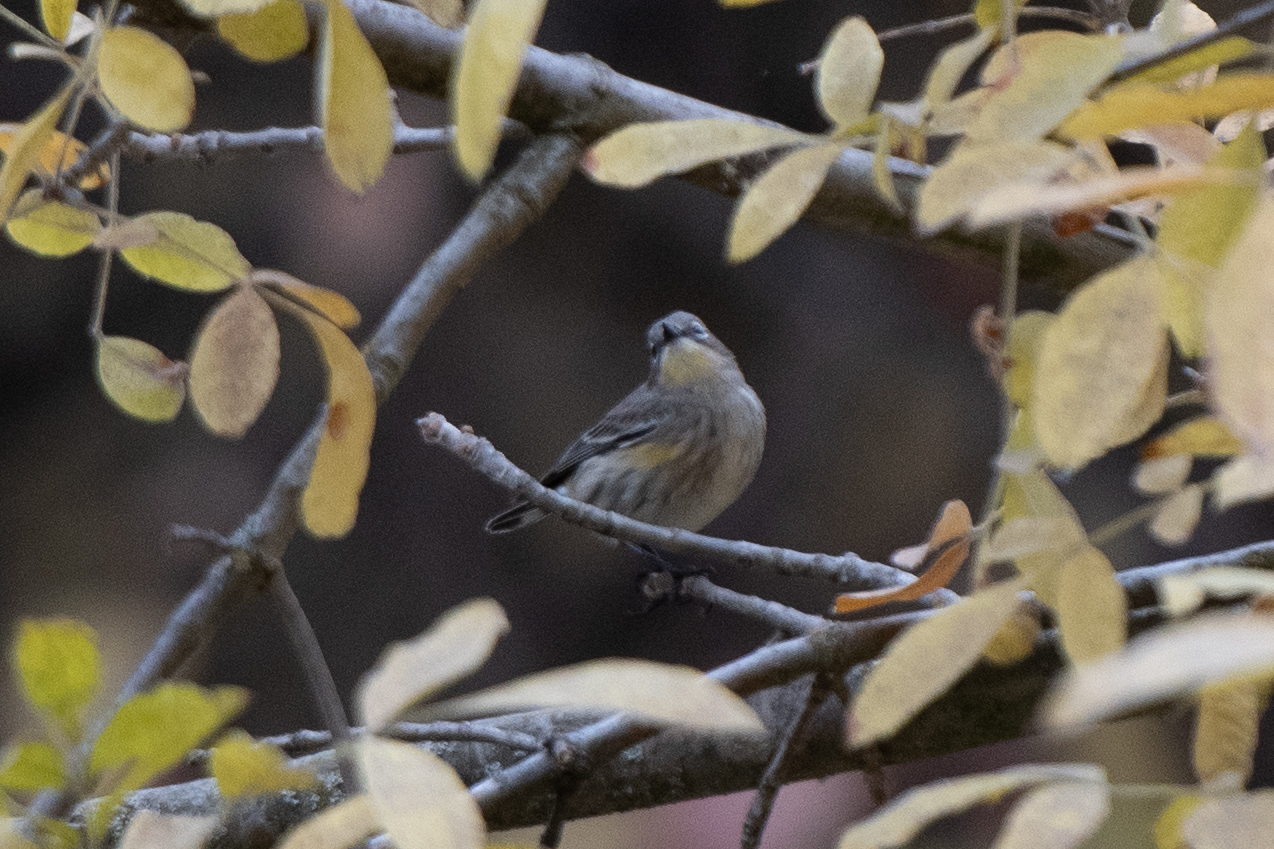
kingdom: Animalia
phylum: Chordata
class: Aves
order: Passeriformes
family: Parulidae
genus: Setophaga
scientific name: Setophaga coronata
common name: Myrtle warbler
